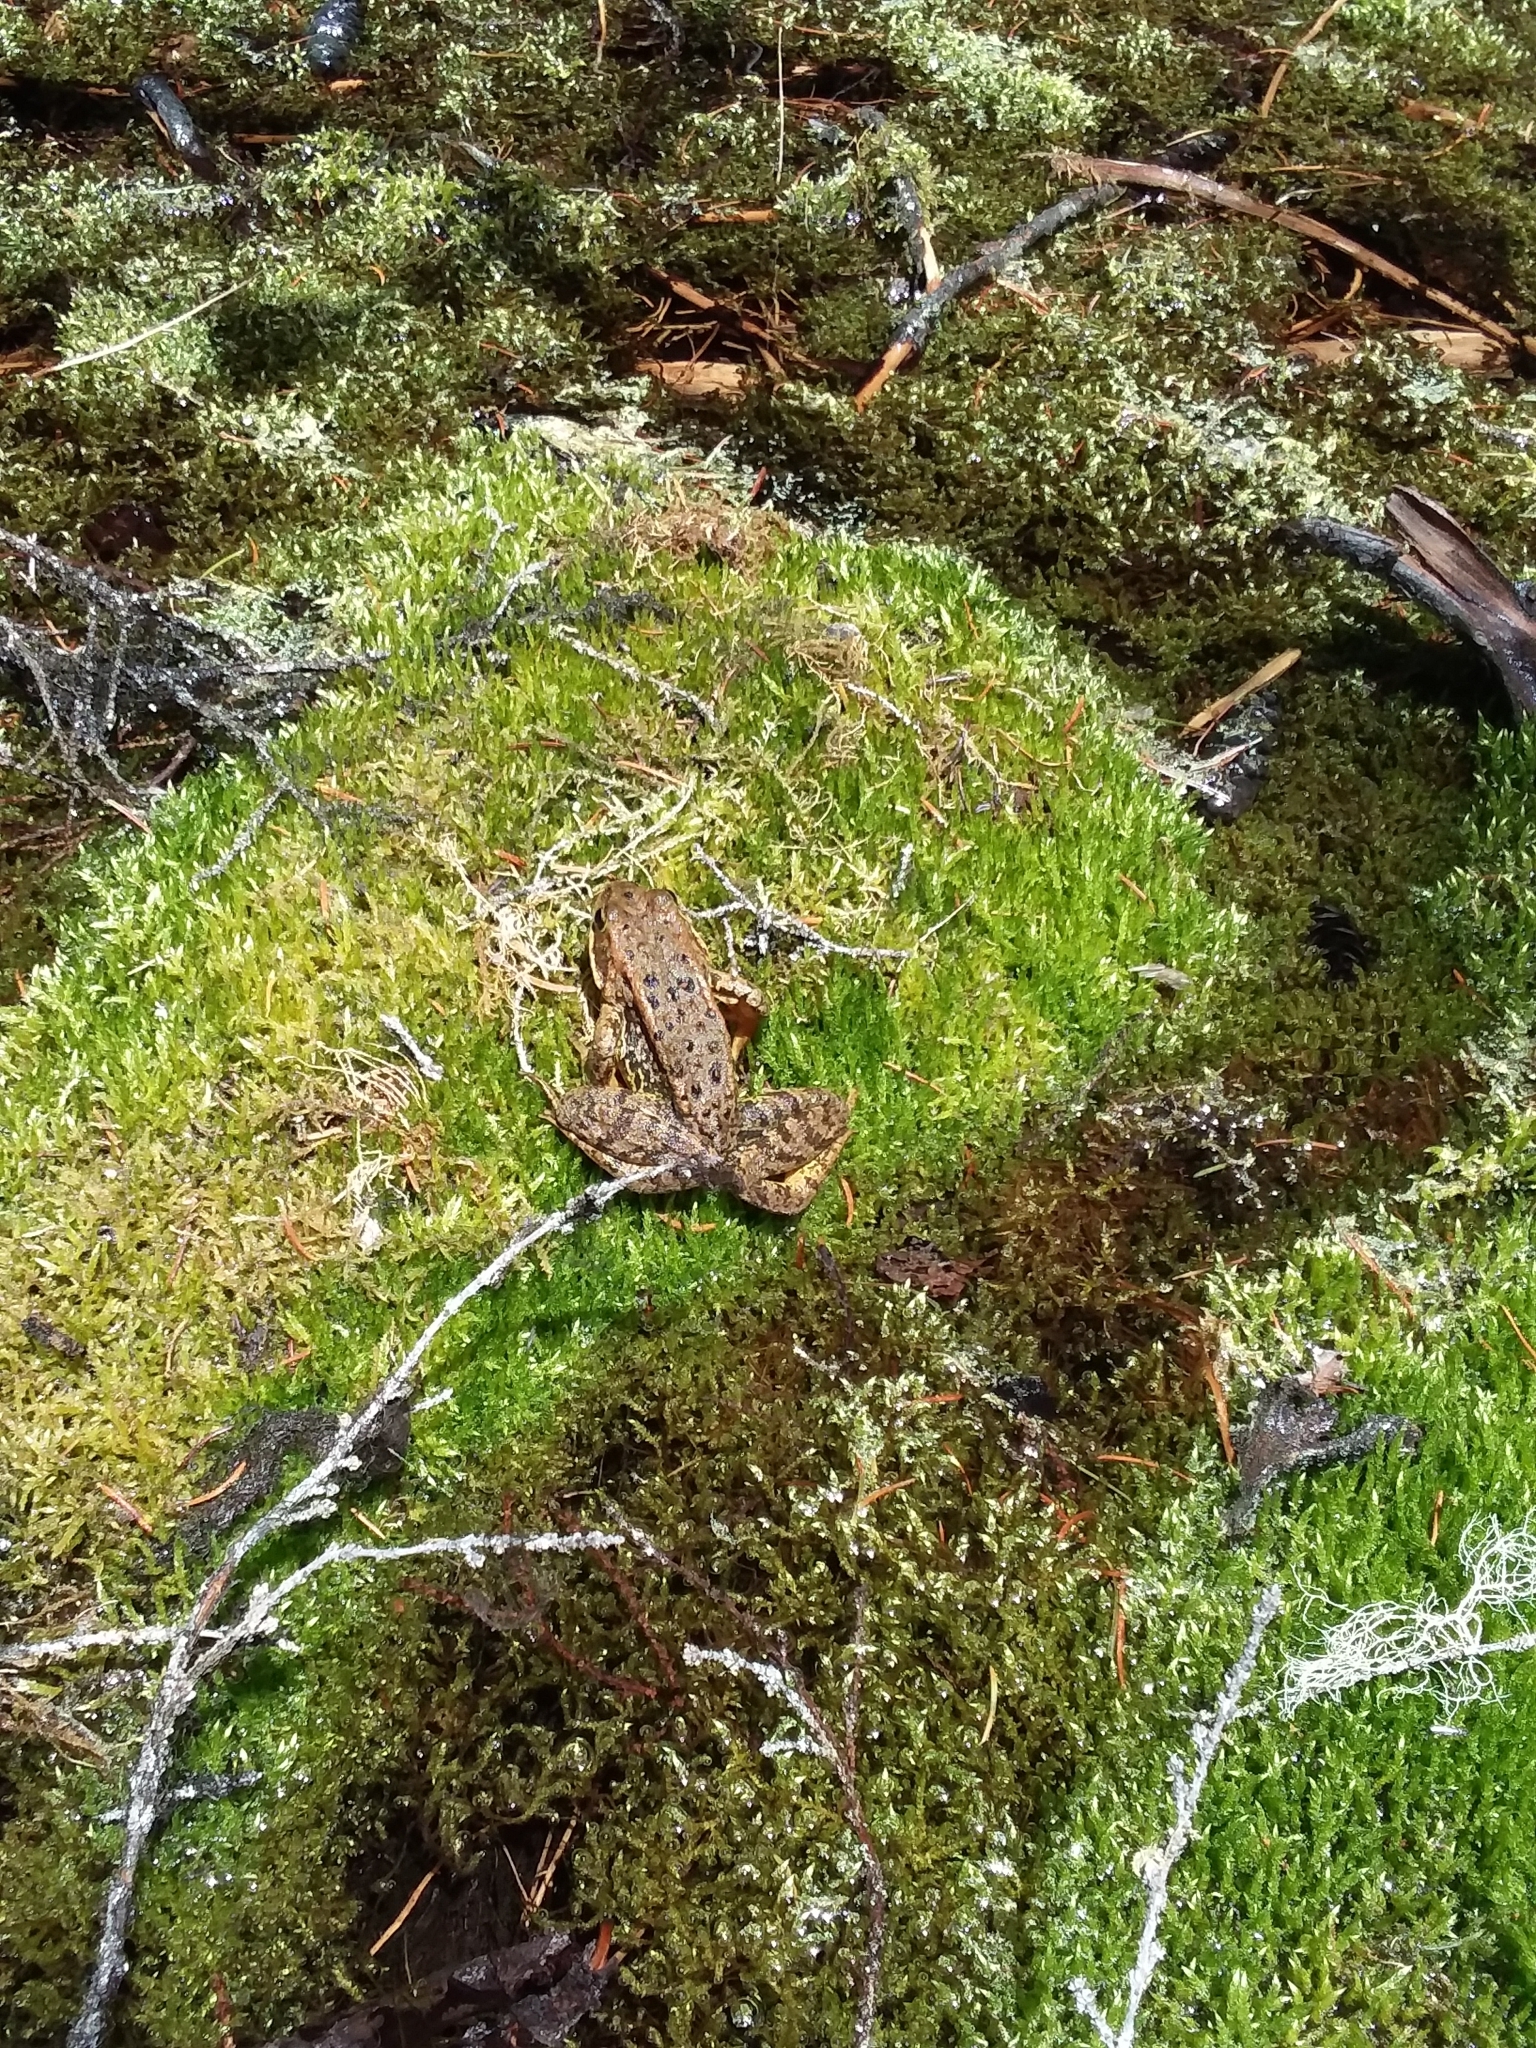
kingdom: Animalia
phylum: Chordata
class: Amphibia
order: Anura
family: Ranidae
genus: Rana
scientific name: Rana cascadae
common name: Cascades frog
